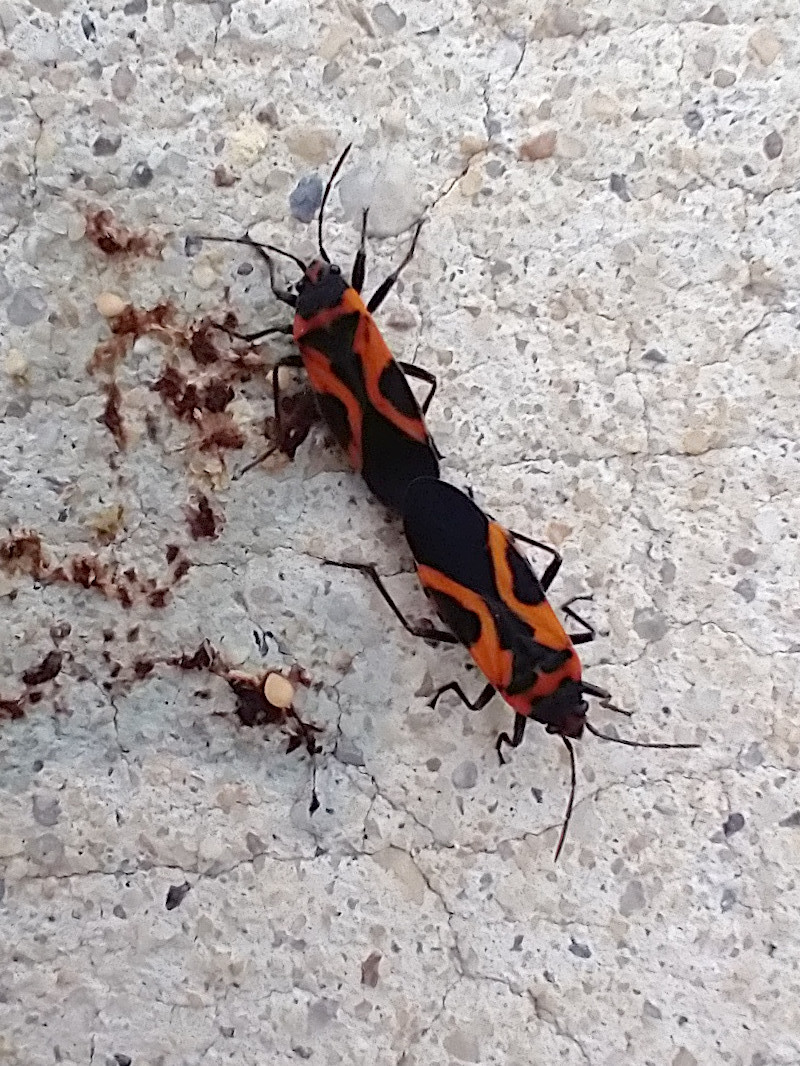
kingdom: Animalia
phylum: Arthropoda
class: Insecta
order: Hemiptera
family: Lygaeidae
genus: Lygaeus
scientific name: Lygaeus turcicus
